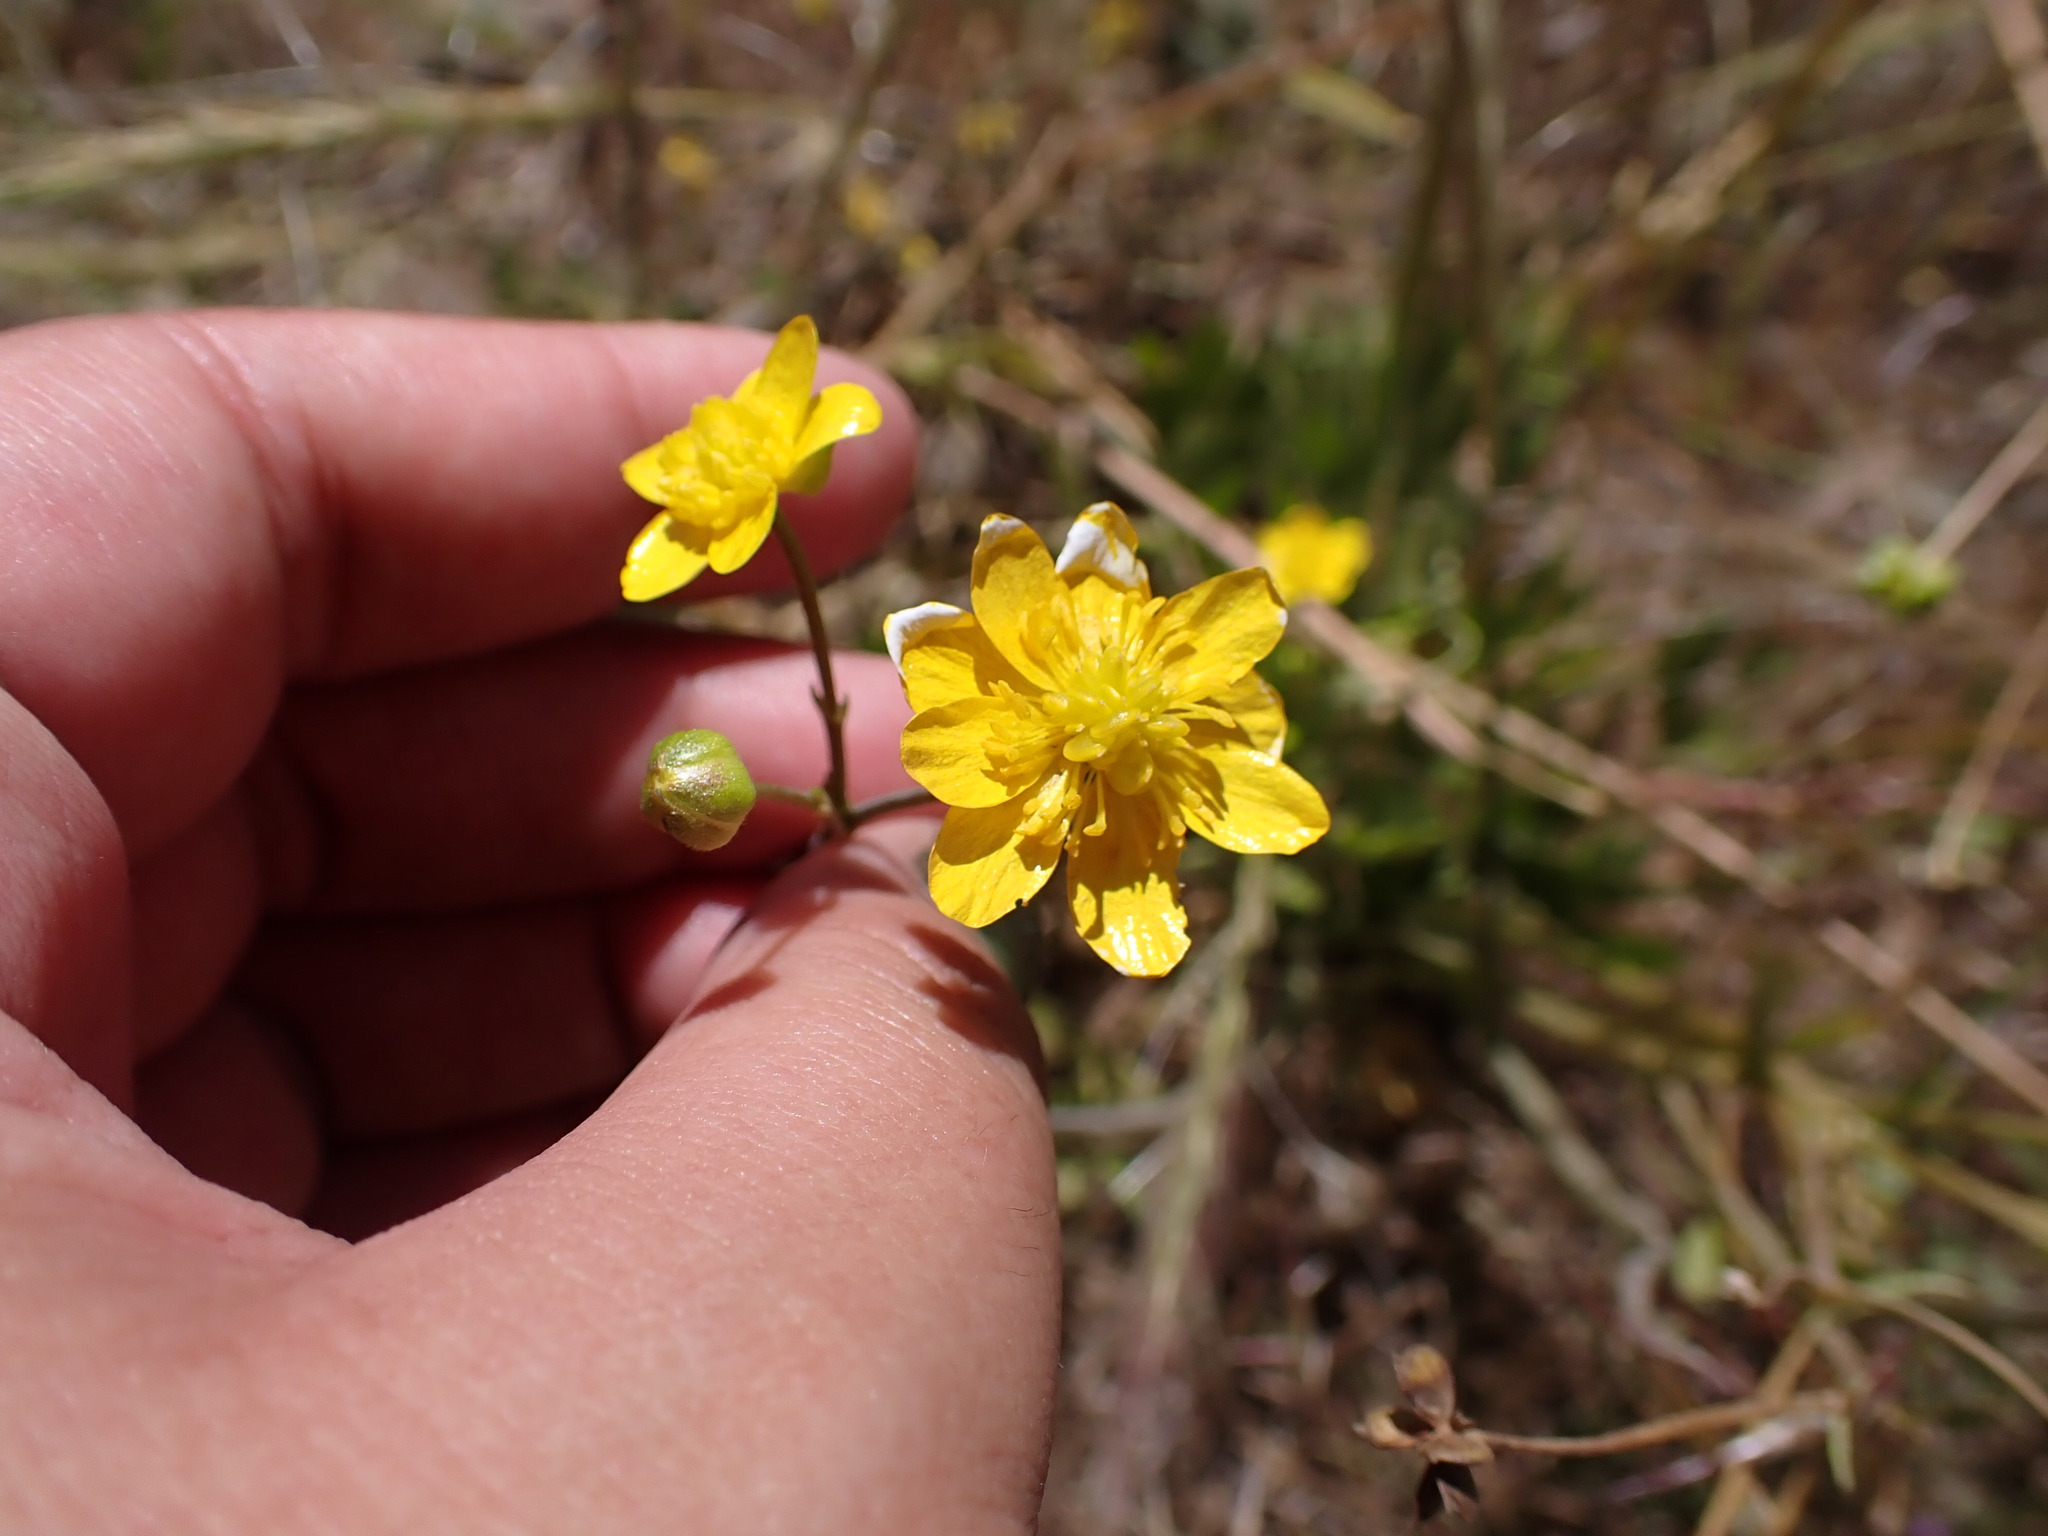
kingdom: Plantae
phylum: Tracheophyta
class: Magnoliopsida
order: Ranunculales
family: Ranunculaceae
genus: Ranunculus
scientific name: Ranunculus californicus
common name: California buttercup
